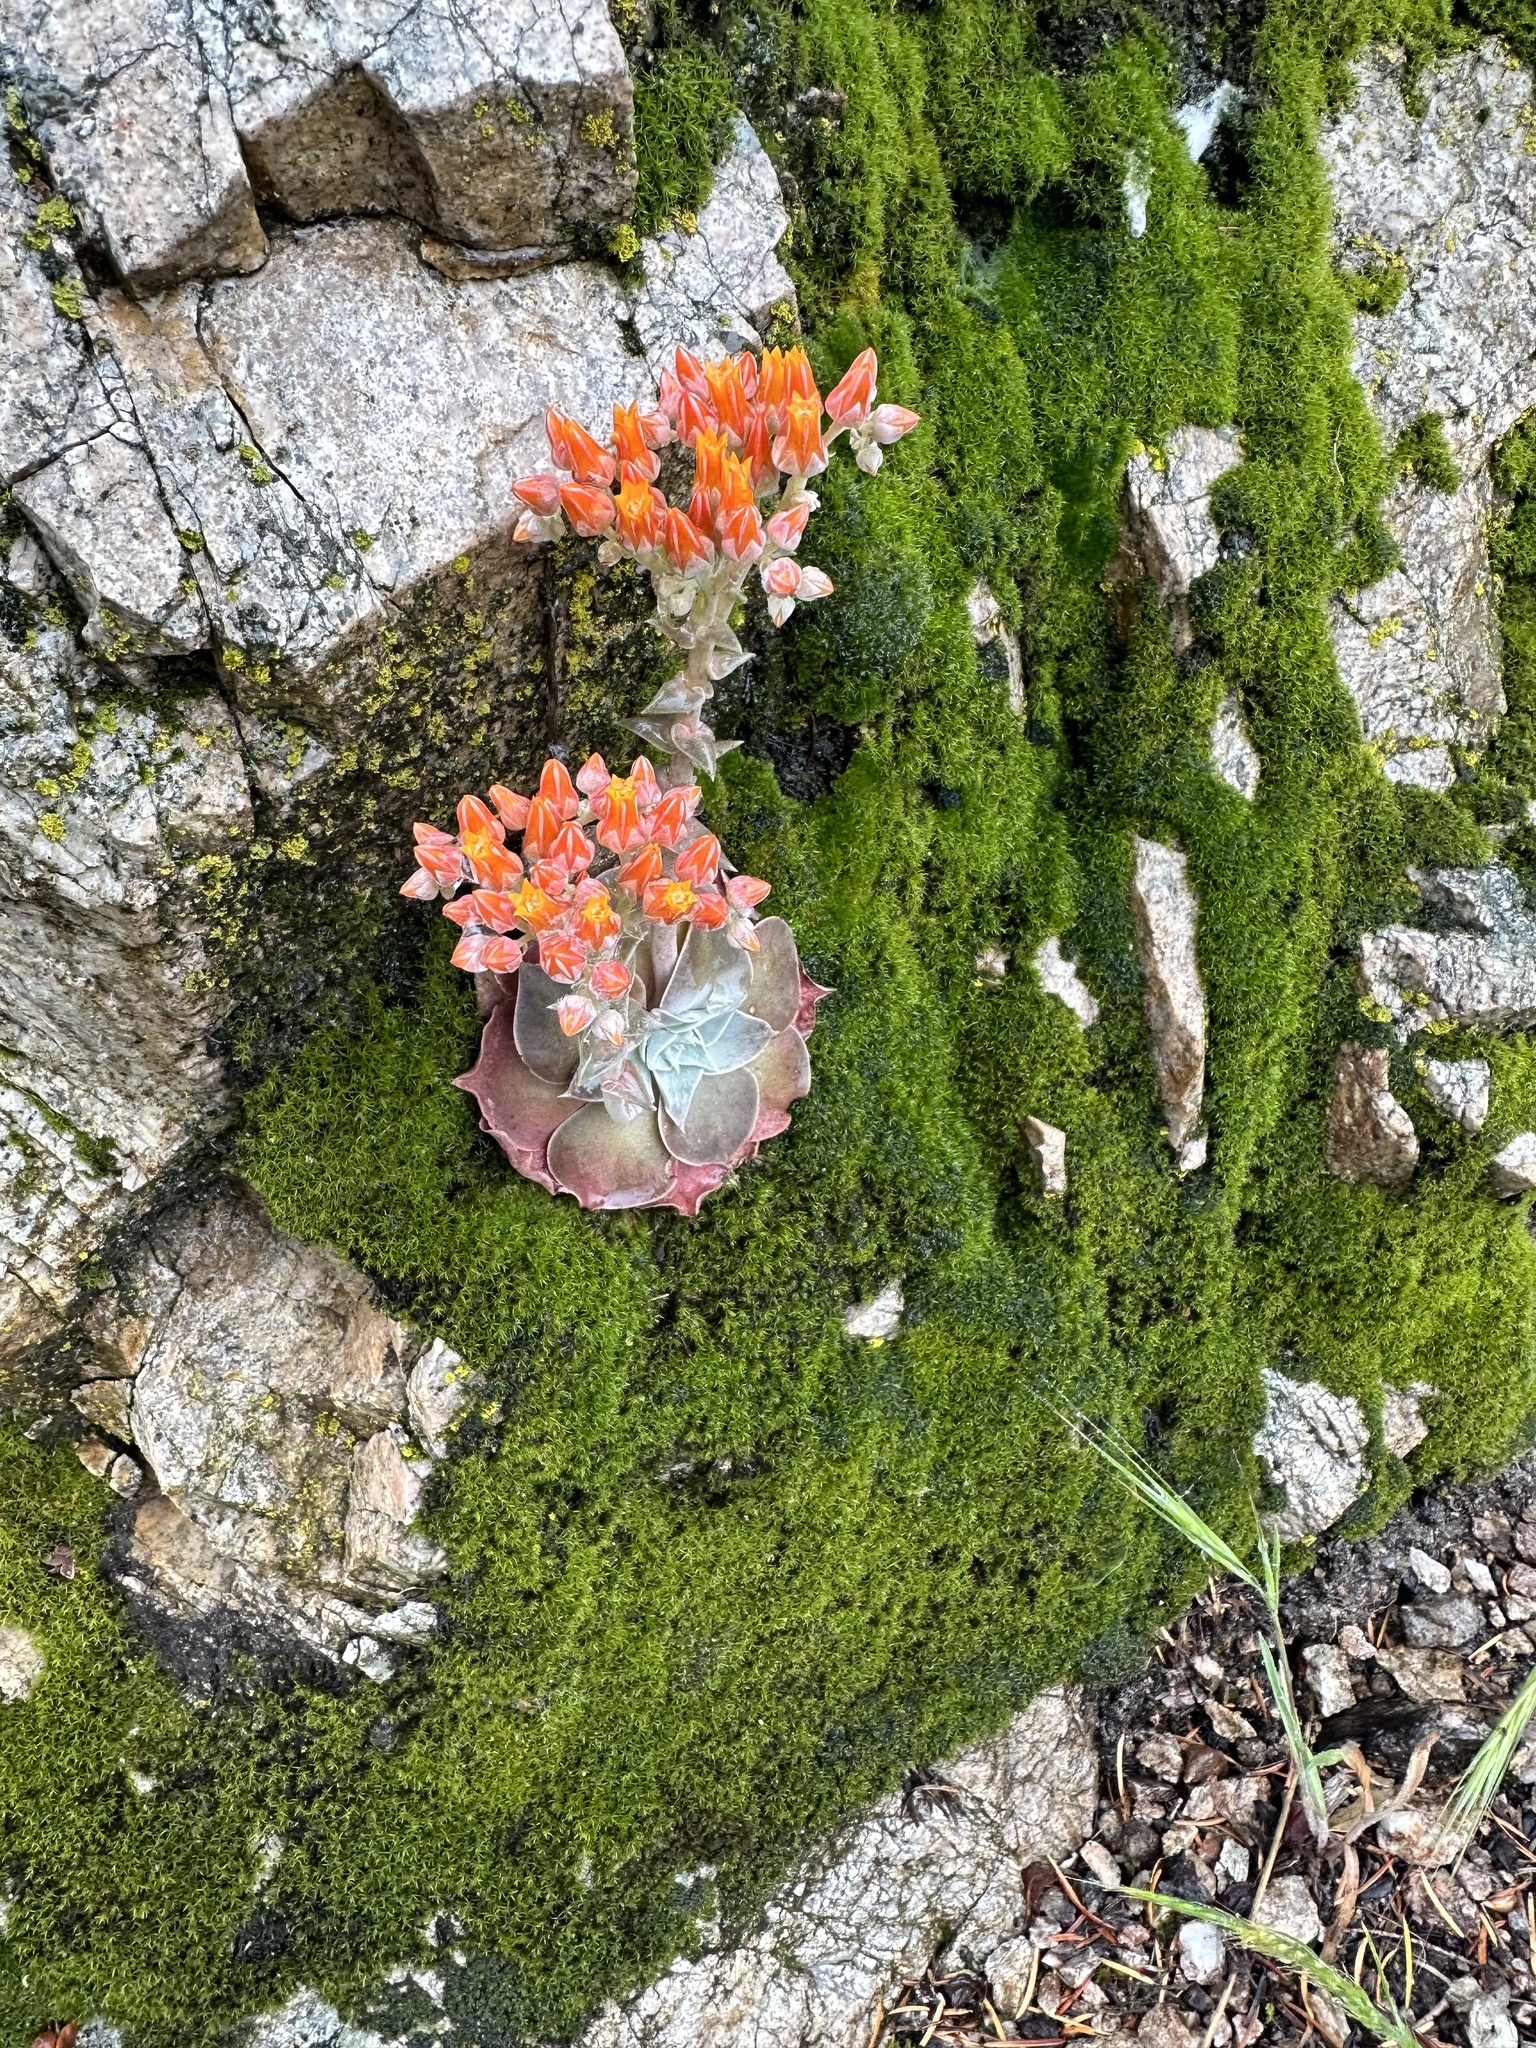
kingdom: Plantae
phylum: Tracheophyta
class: Magnoliopsida
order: Saxifragales
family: Crassulaceae
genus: Dudleya
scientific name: Dudleya cymosa
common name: Canyon dudleya
